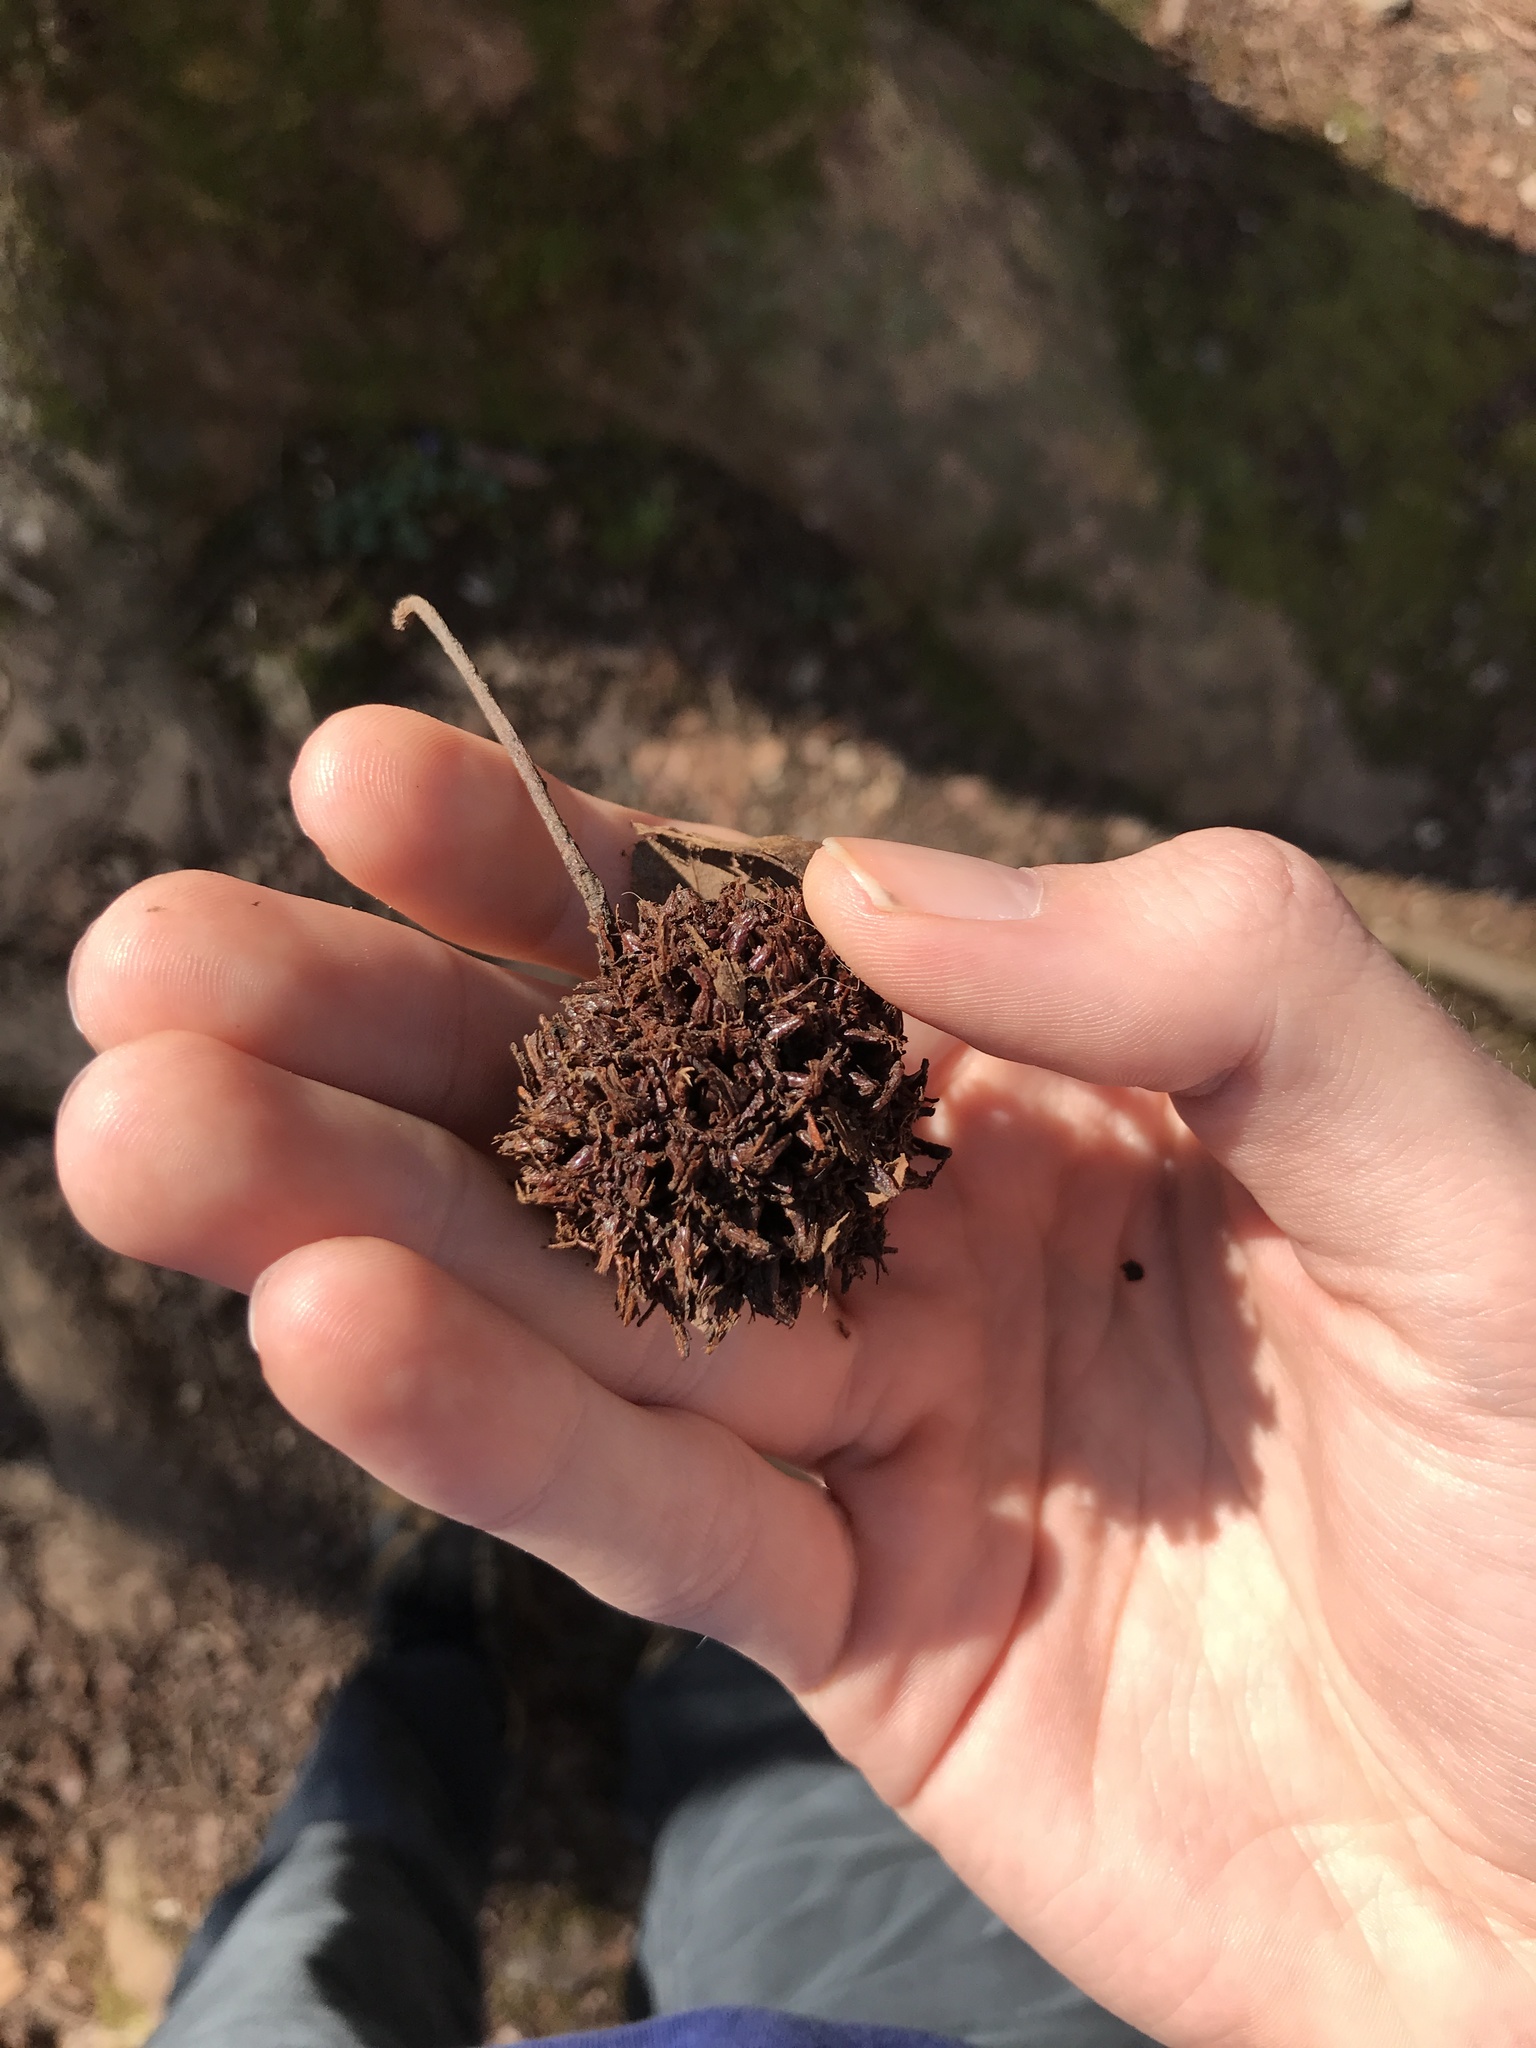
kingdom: Plantae
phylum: Tracheophyta
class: Magnoliopsida
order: Saxifragales
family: Altingiaceae
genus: Liquidambar
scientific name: Liquidambar styraciflua
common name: Sweet gum
